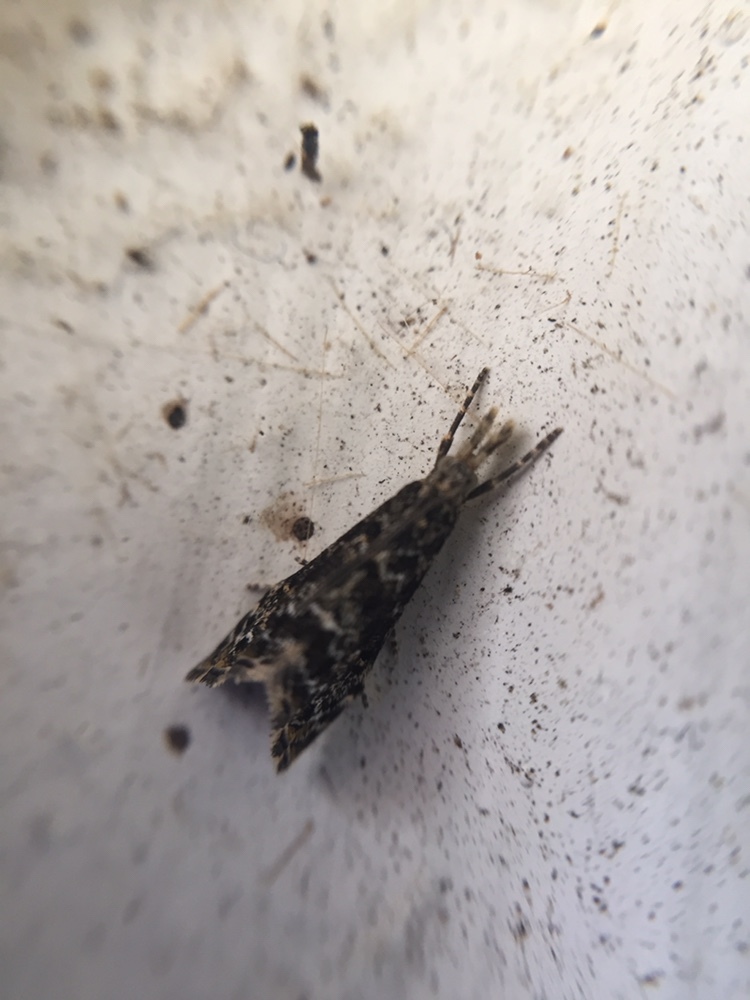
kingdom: Animalia
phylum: Arthropoda
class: Insecta
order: Lepidoptera
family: Crambidae
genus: Glaucocharis
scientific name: Glaucocharis elaina
